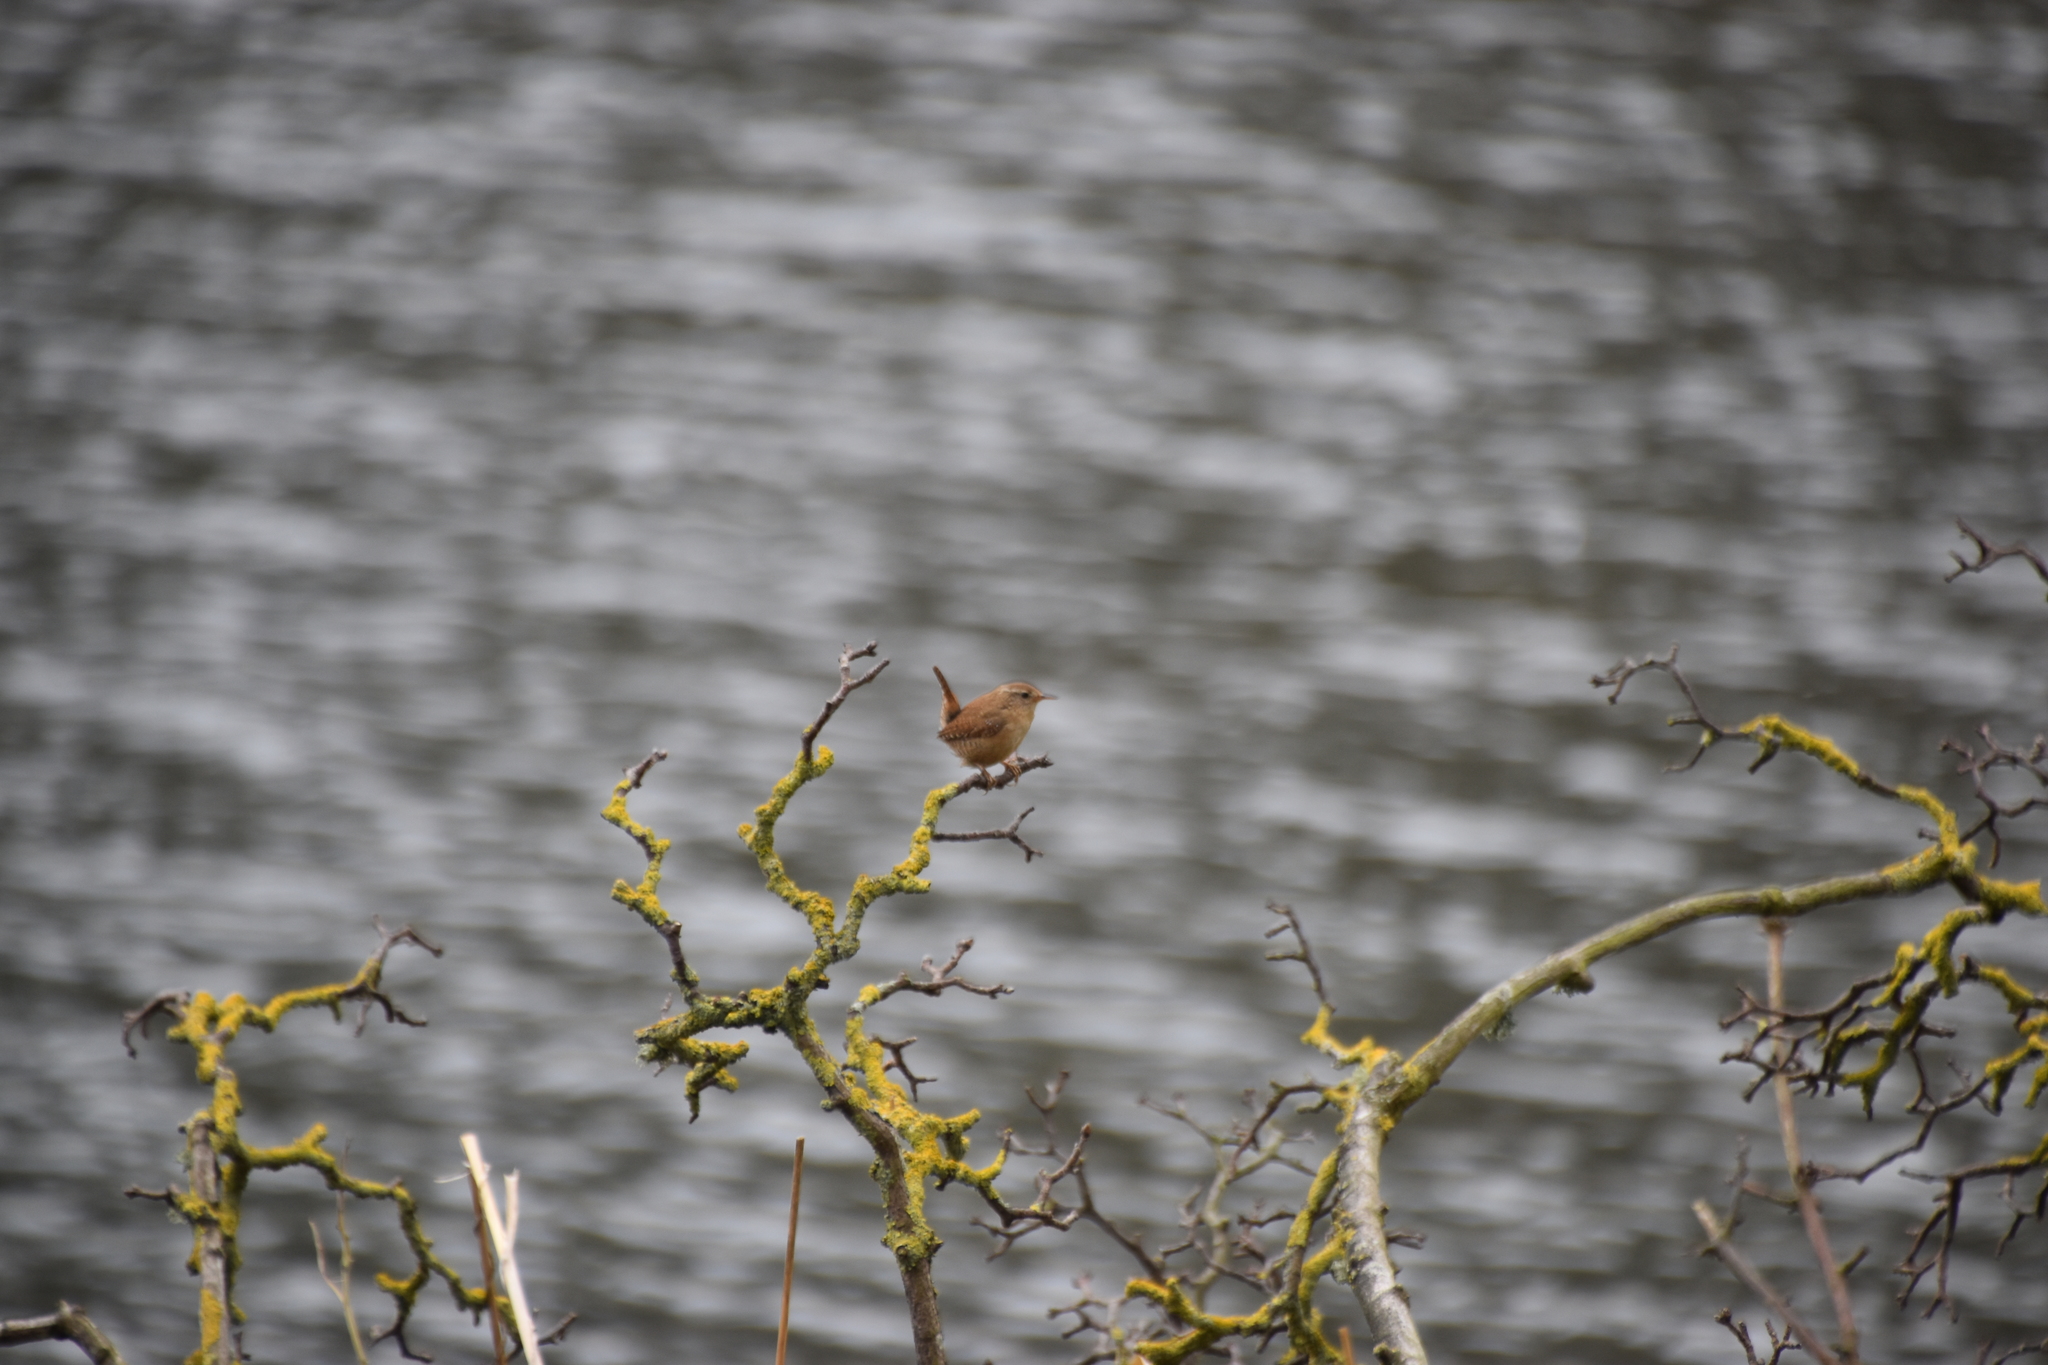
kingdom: Animalia
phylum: Chordata
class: Aves
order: Passeriformes
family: Troglodytidae
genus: Troglodytes
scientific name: Troglodytes troglodytes
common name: Eurasian wren
